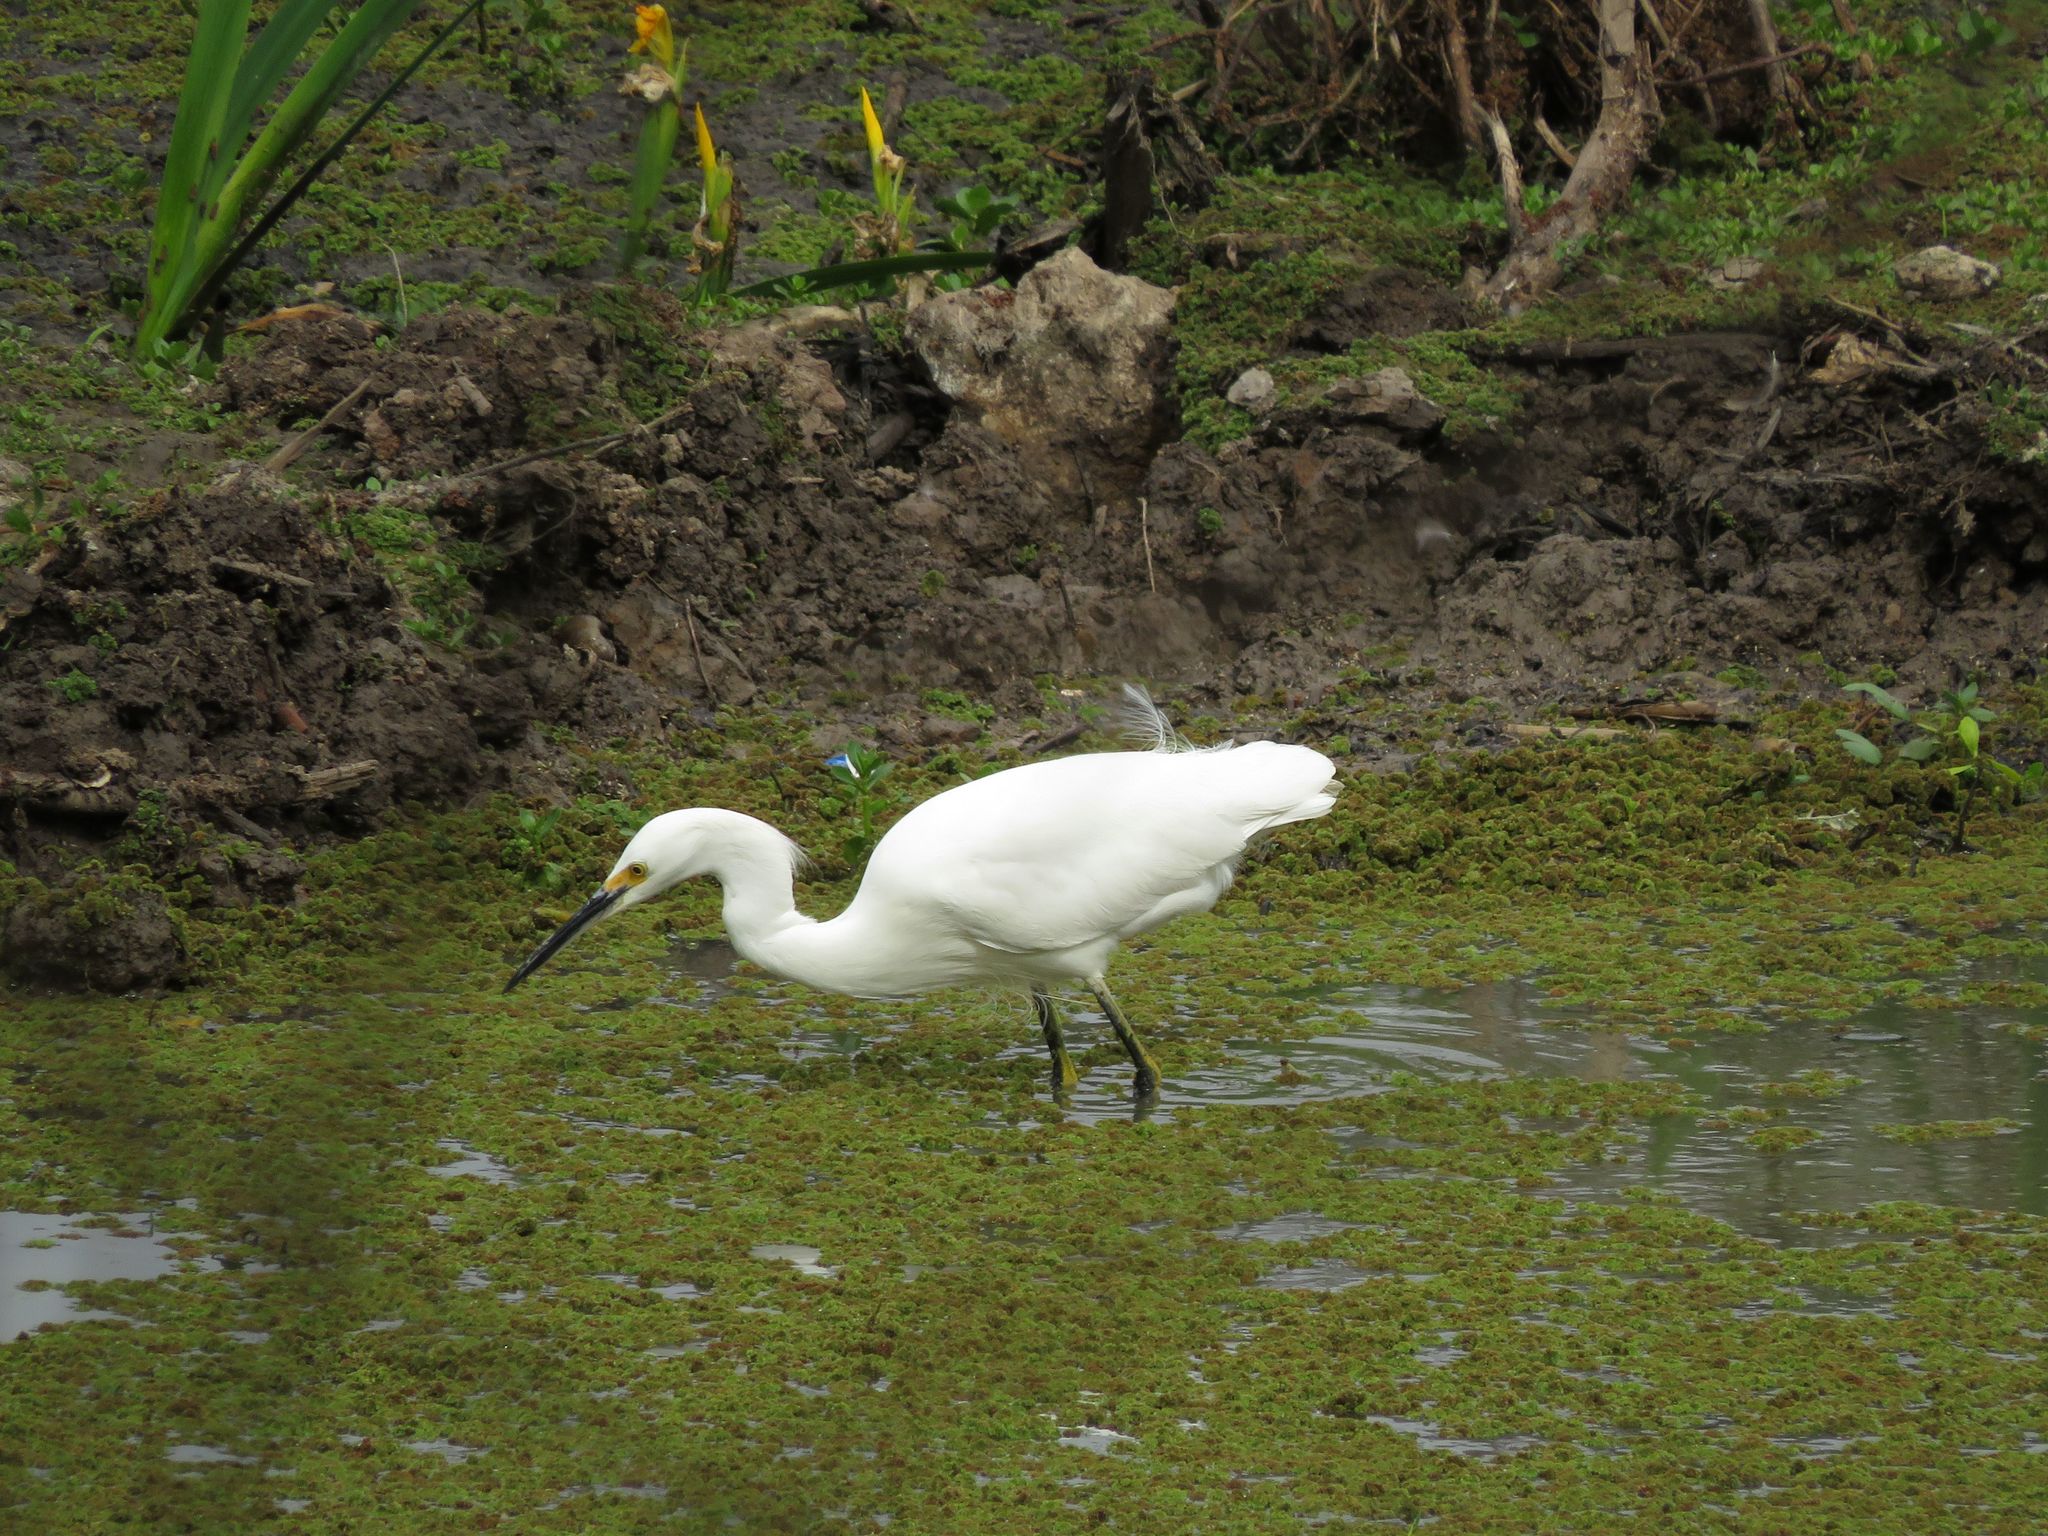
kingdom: Animalia
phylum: Chordata
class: Aves
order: Pelecaniformes
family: Ardeidae
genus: Egretta
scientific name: Egretta thula
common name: Snowy egret
